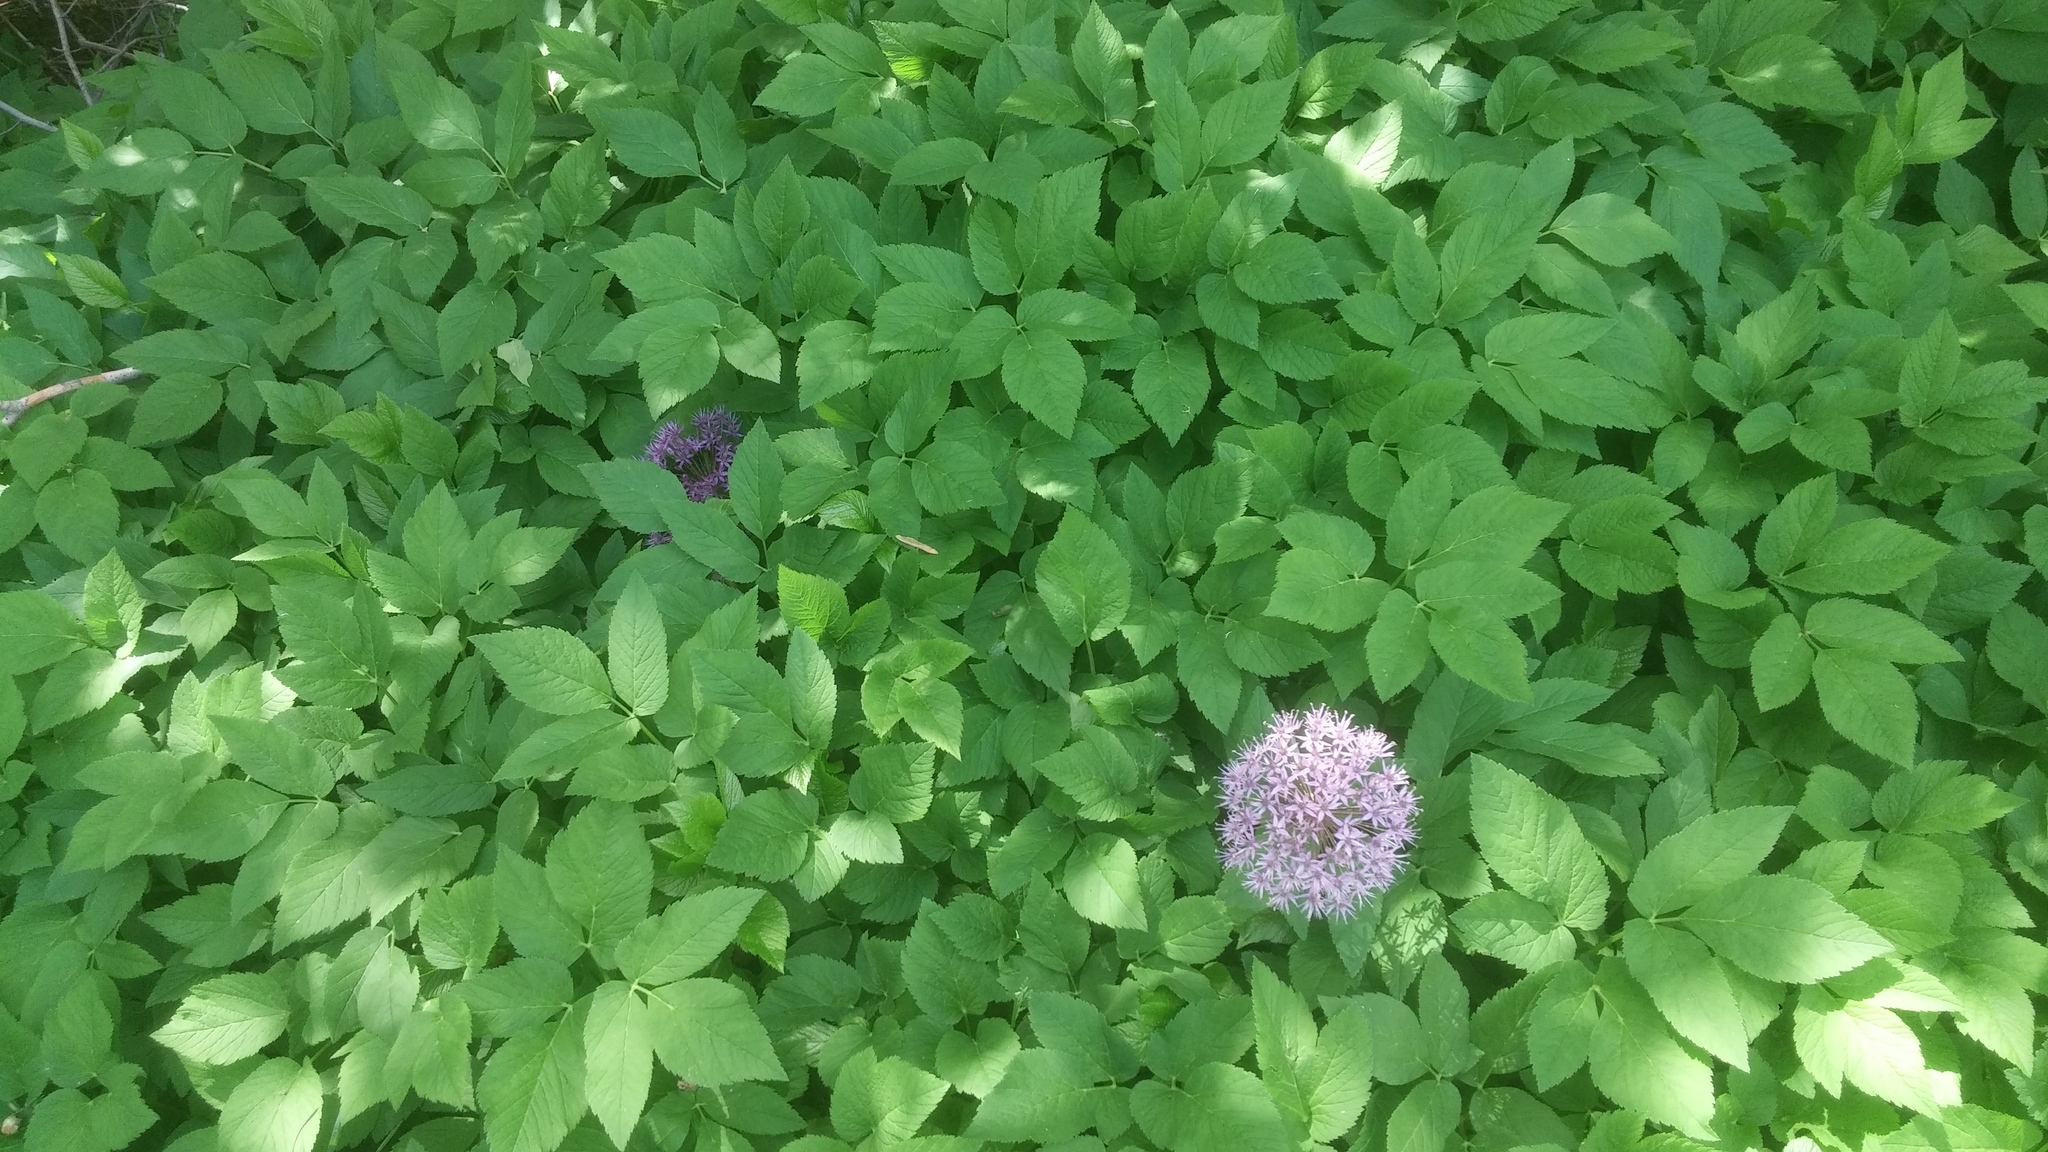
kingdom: Plantae
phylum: Tracheophyta
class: Liliopsida
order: Asparagales
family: Amaryllidaceae
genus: Allium
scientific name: Allium
